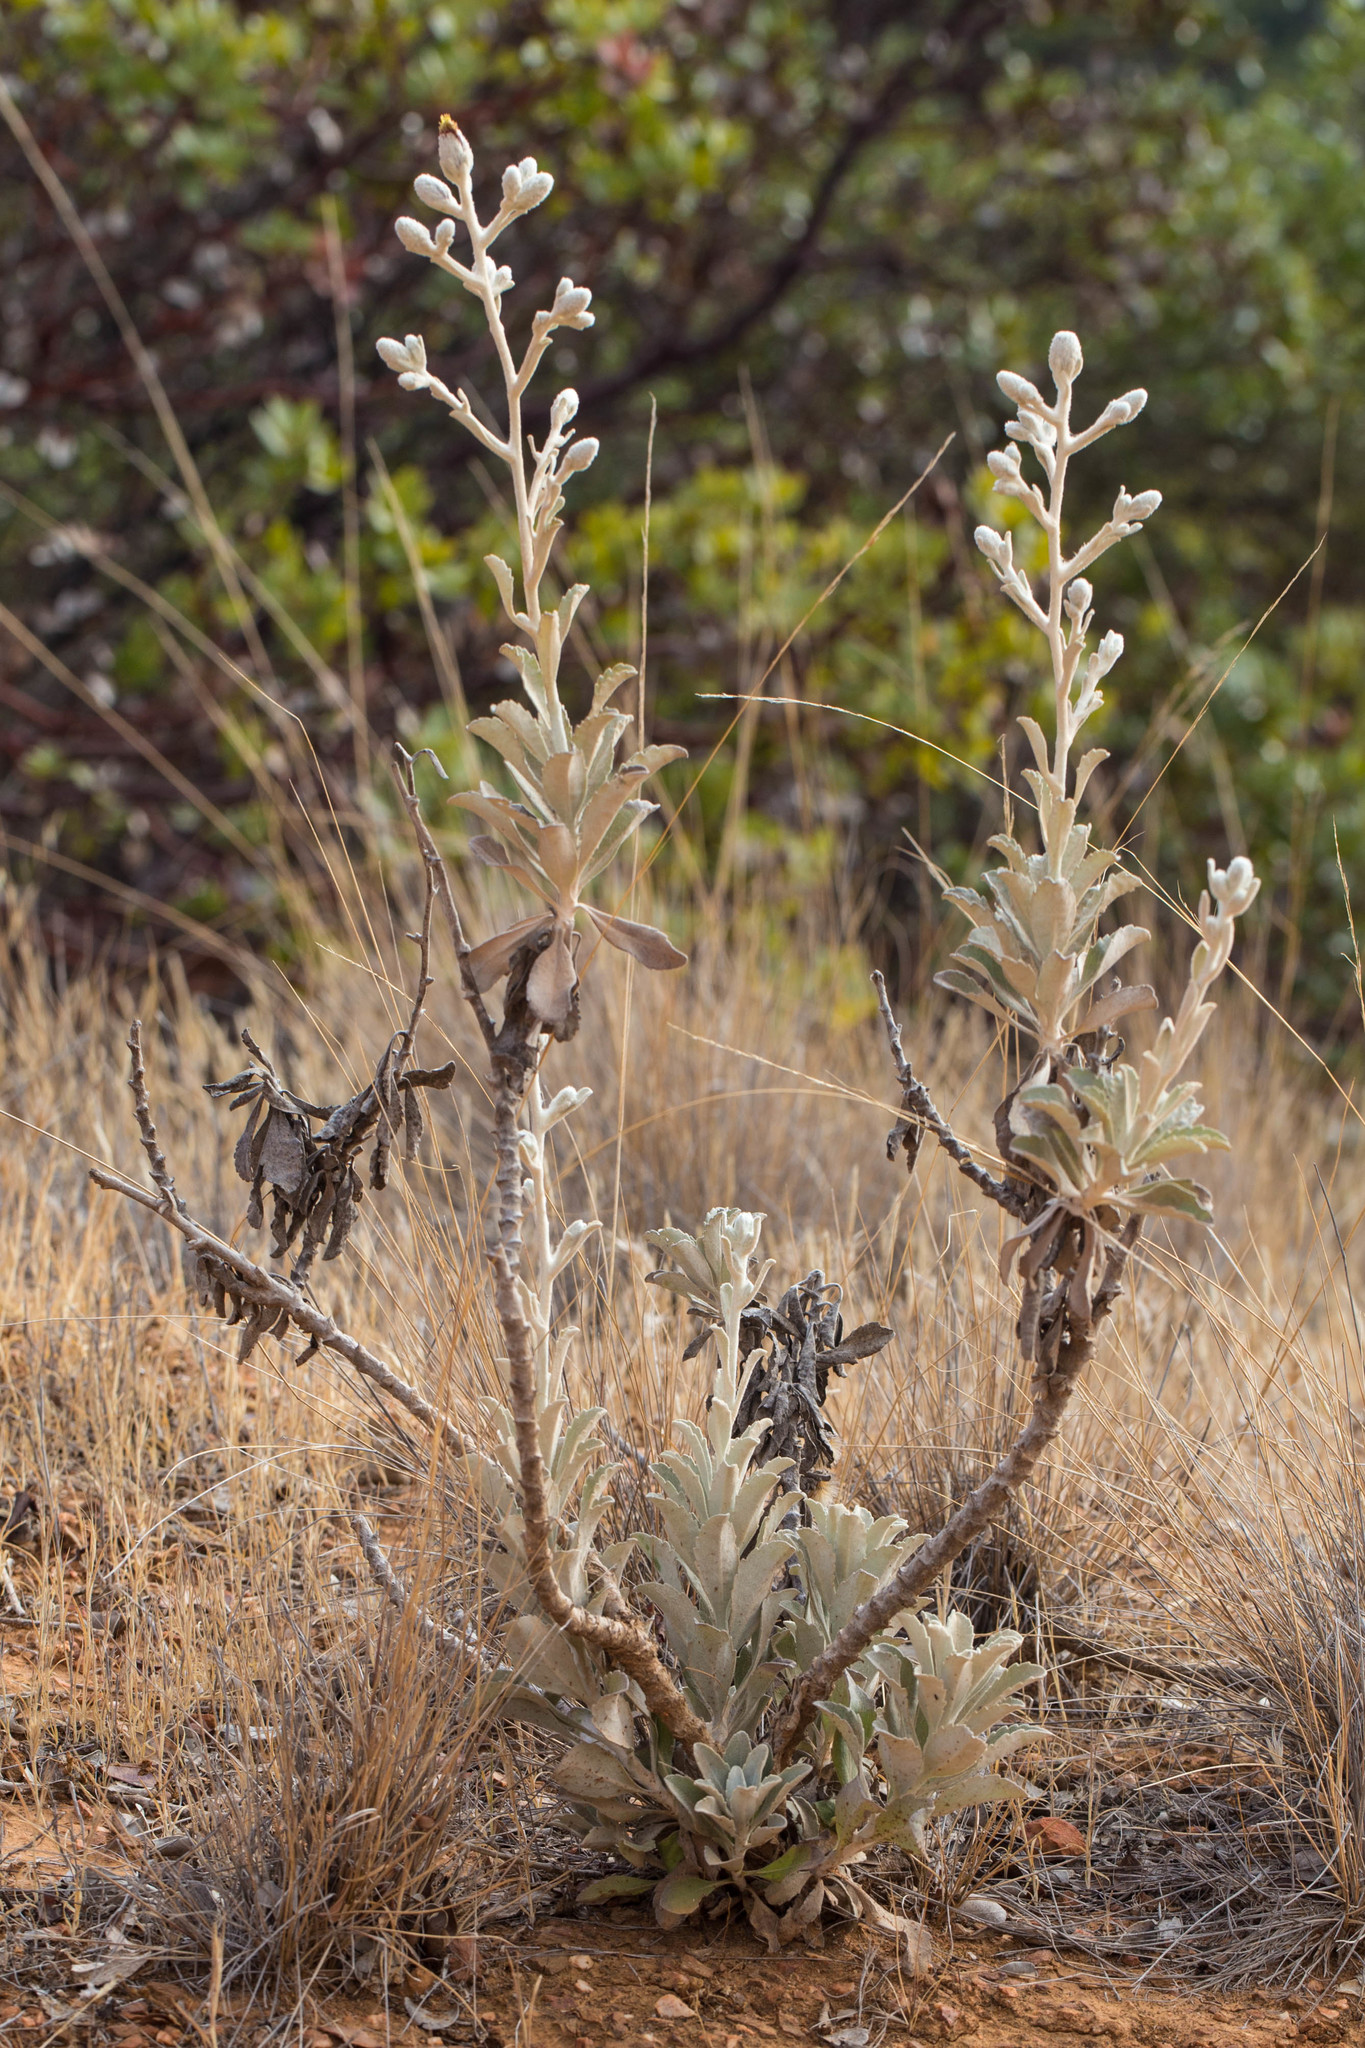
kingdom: Plantae
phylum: Tracheophyta
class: Magnoliopsida
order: Asterales
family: Asteraceae
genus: Hazardia
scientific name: Hazardia detonsa
